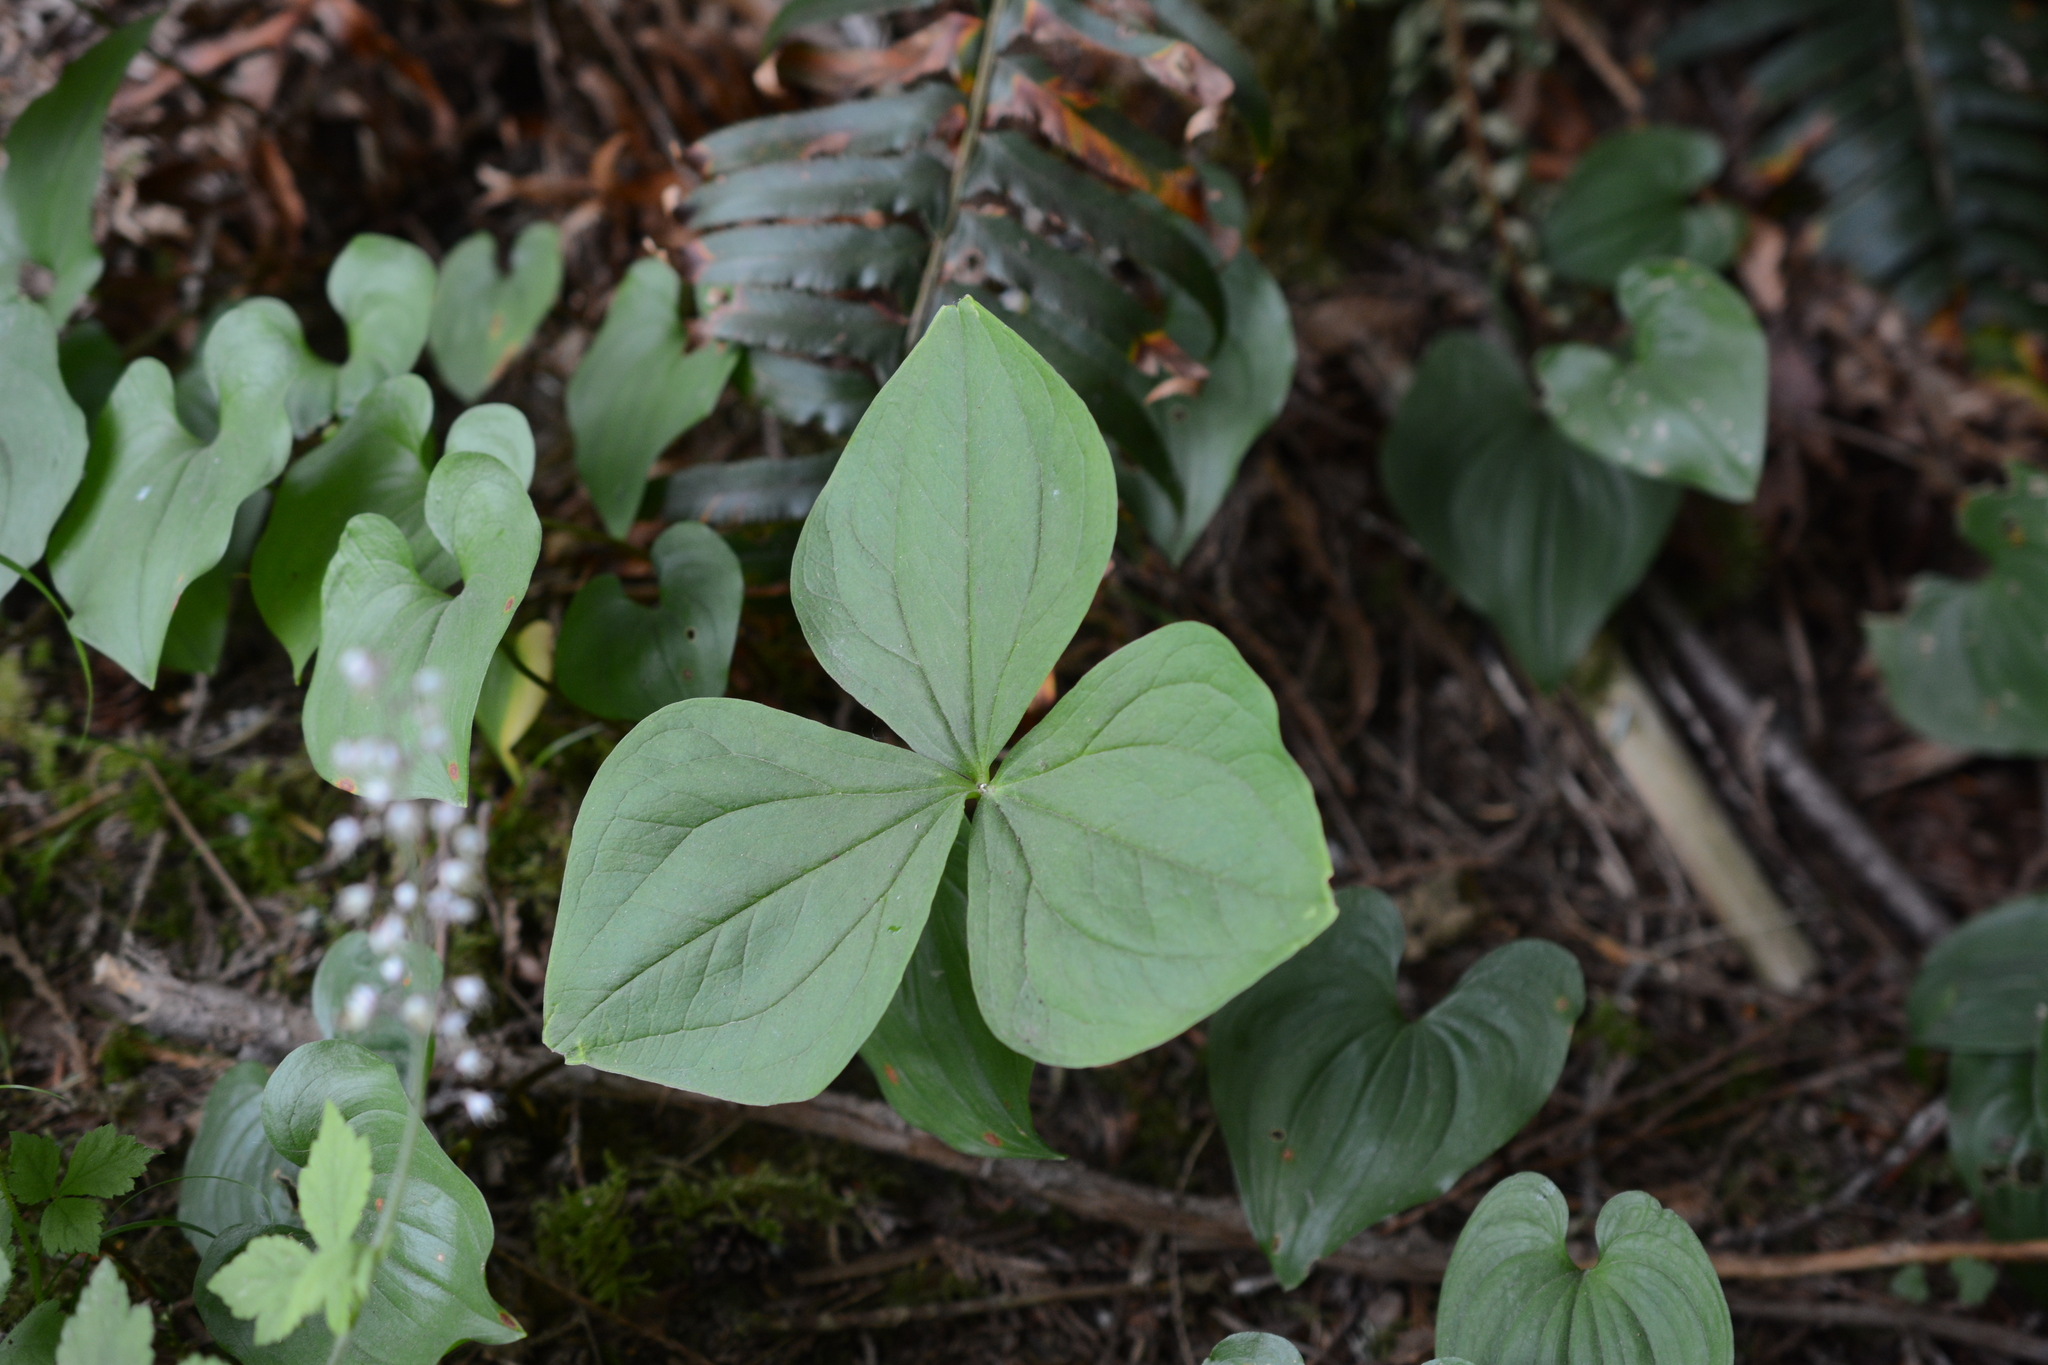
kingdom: Plantae
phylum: Tracheophyta
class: Liliopsida
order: Liliales
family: Melanthiaceae
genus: Trillium
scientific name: Trillium ovatum
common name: Pacific trillium
